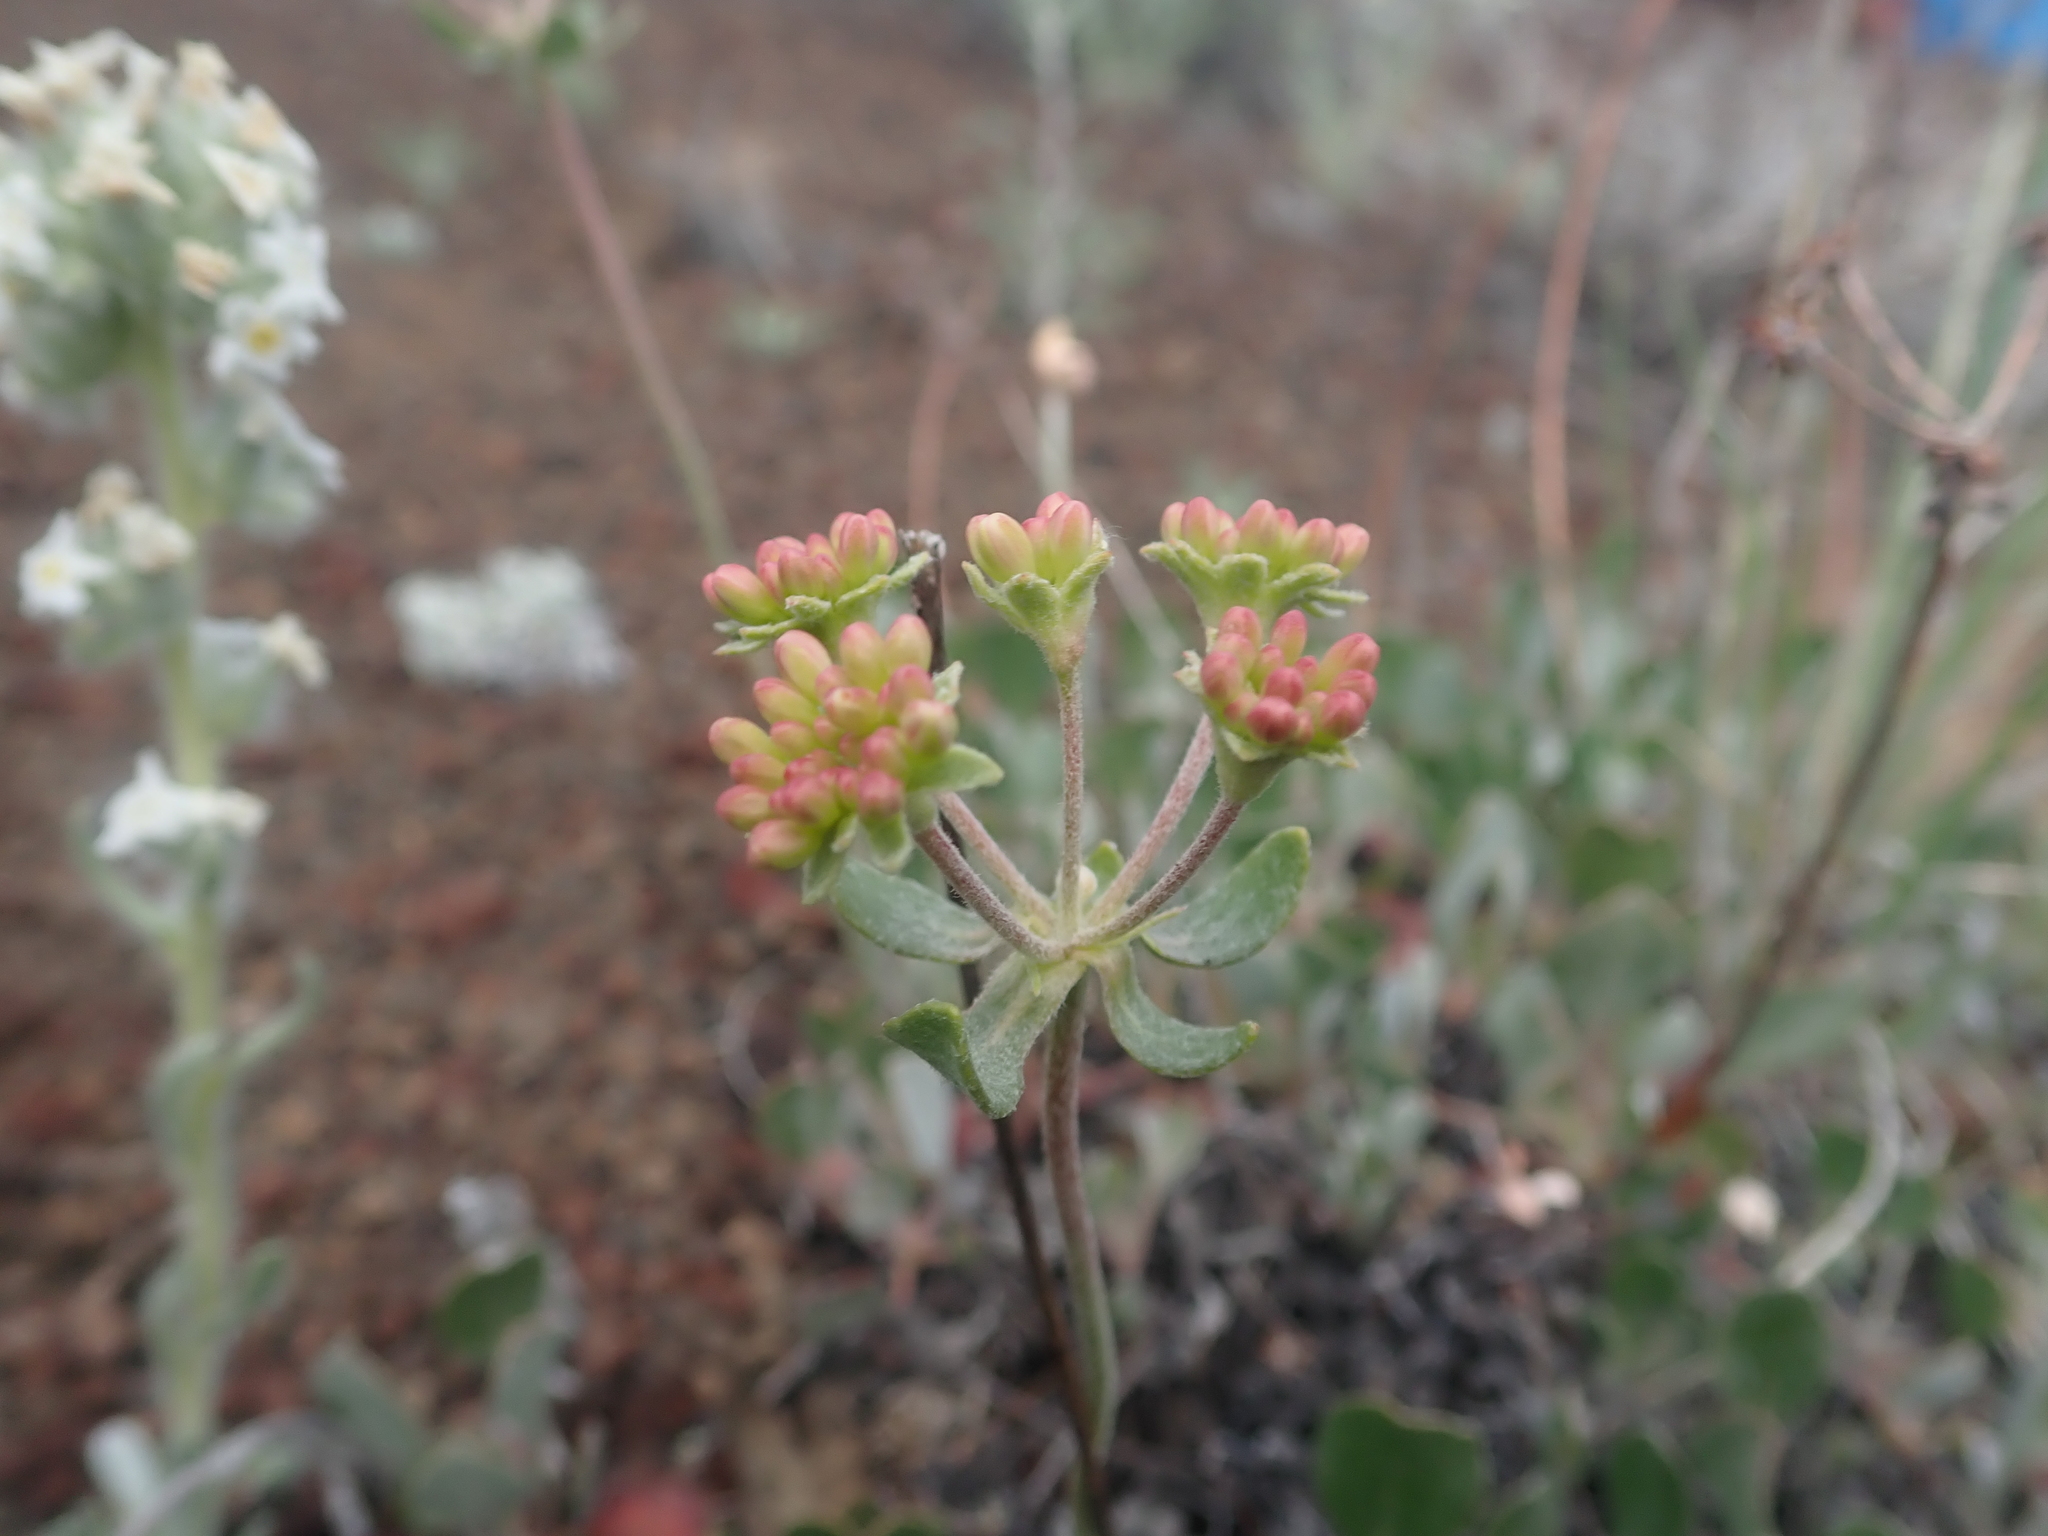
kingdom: Plantae
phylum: Tracheophyta
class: Magnoliopsida
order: Caryophyllales
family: Polygonaceae
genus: Eriogonum
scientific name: Eriogonum umbellatum
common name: Sulfur-buckwheat
